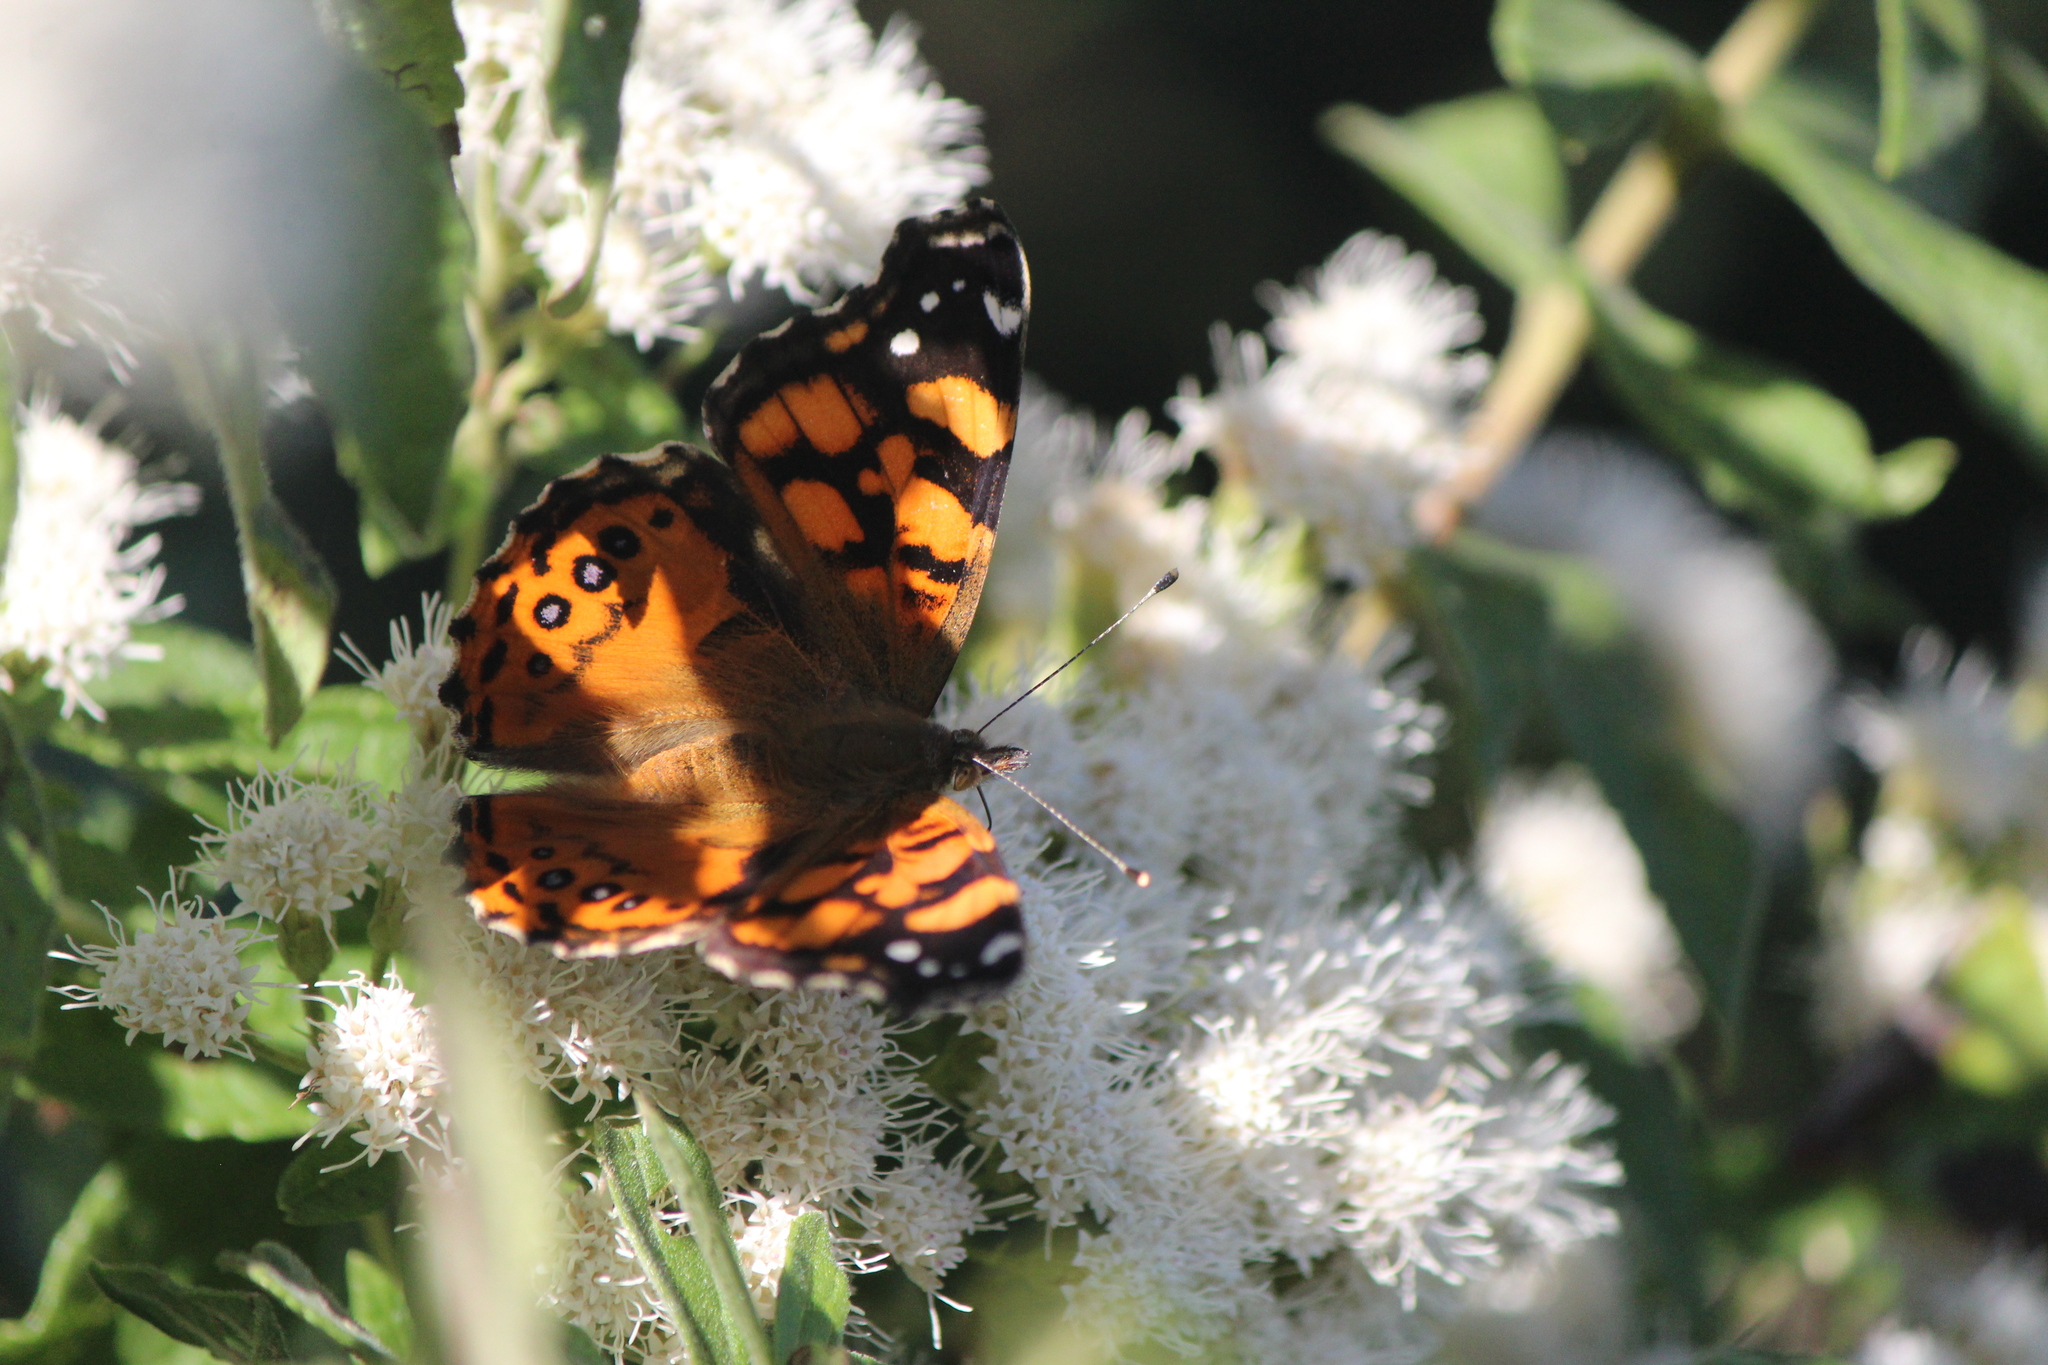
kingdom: Animalia
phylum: Arthropoda
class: Insecta
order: Lepidoptera
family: Nymphalidae
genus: Vanessa
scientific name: Vanessa annabella
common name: West coast lady
